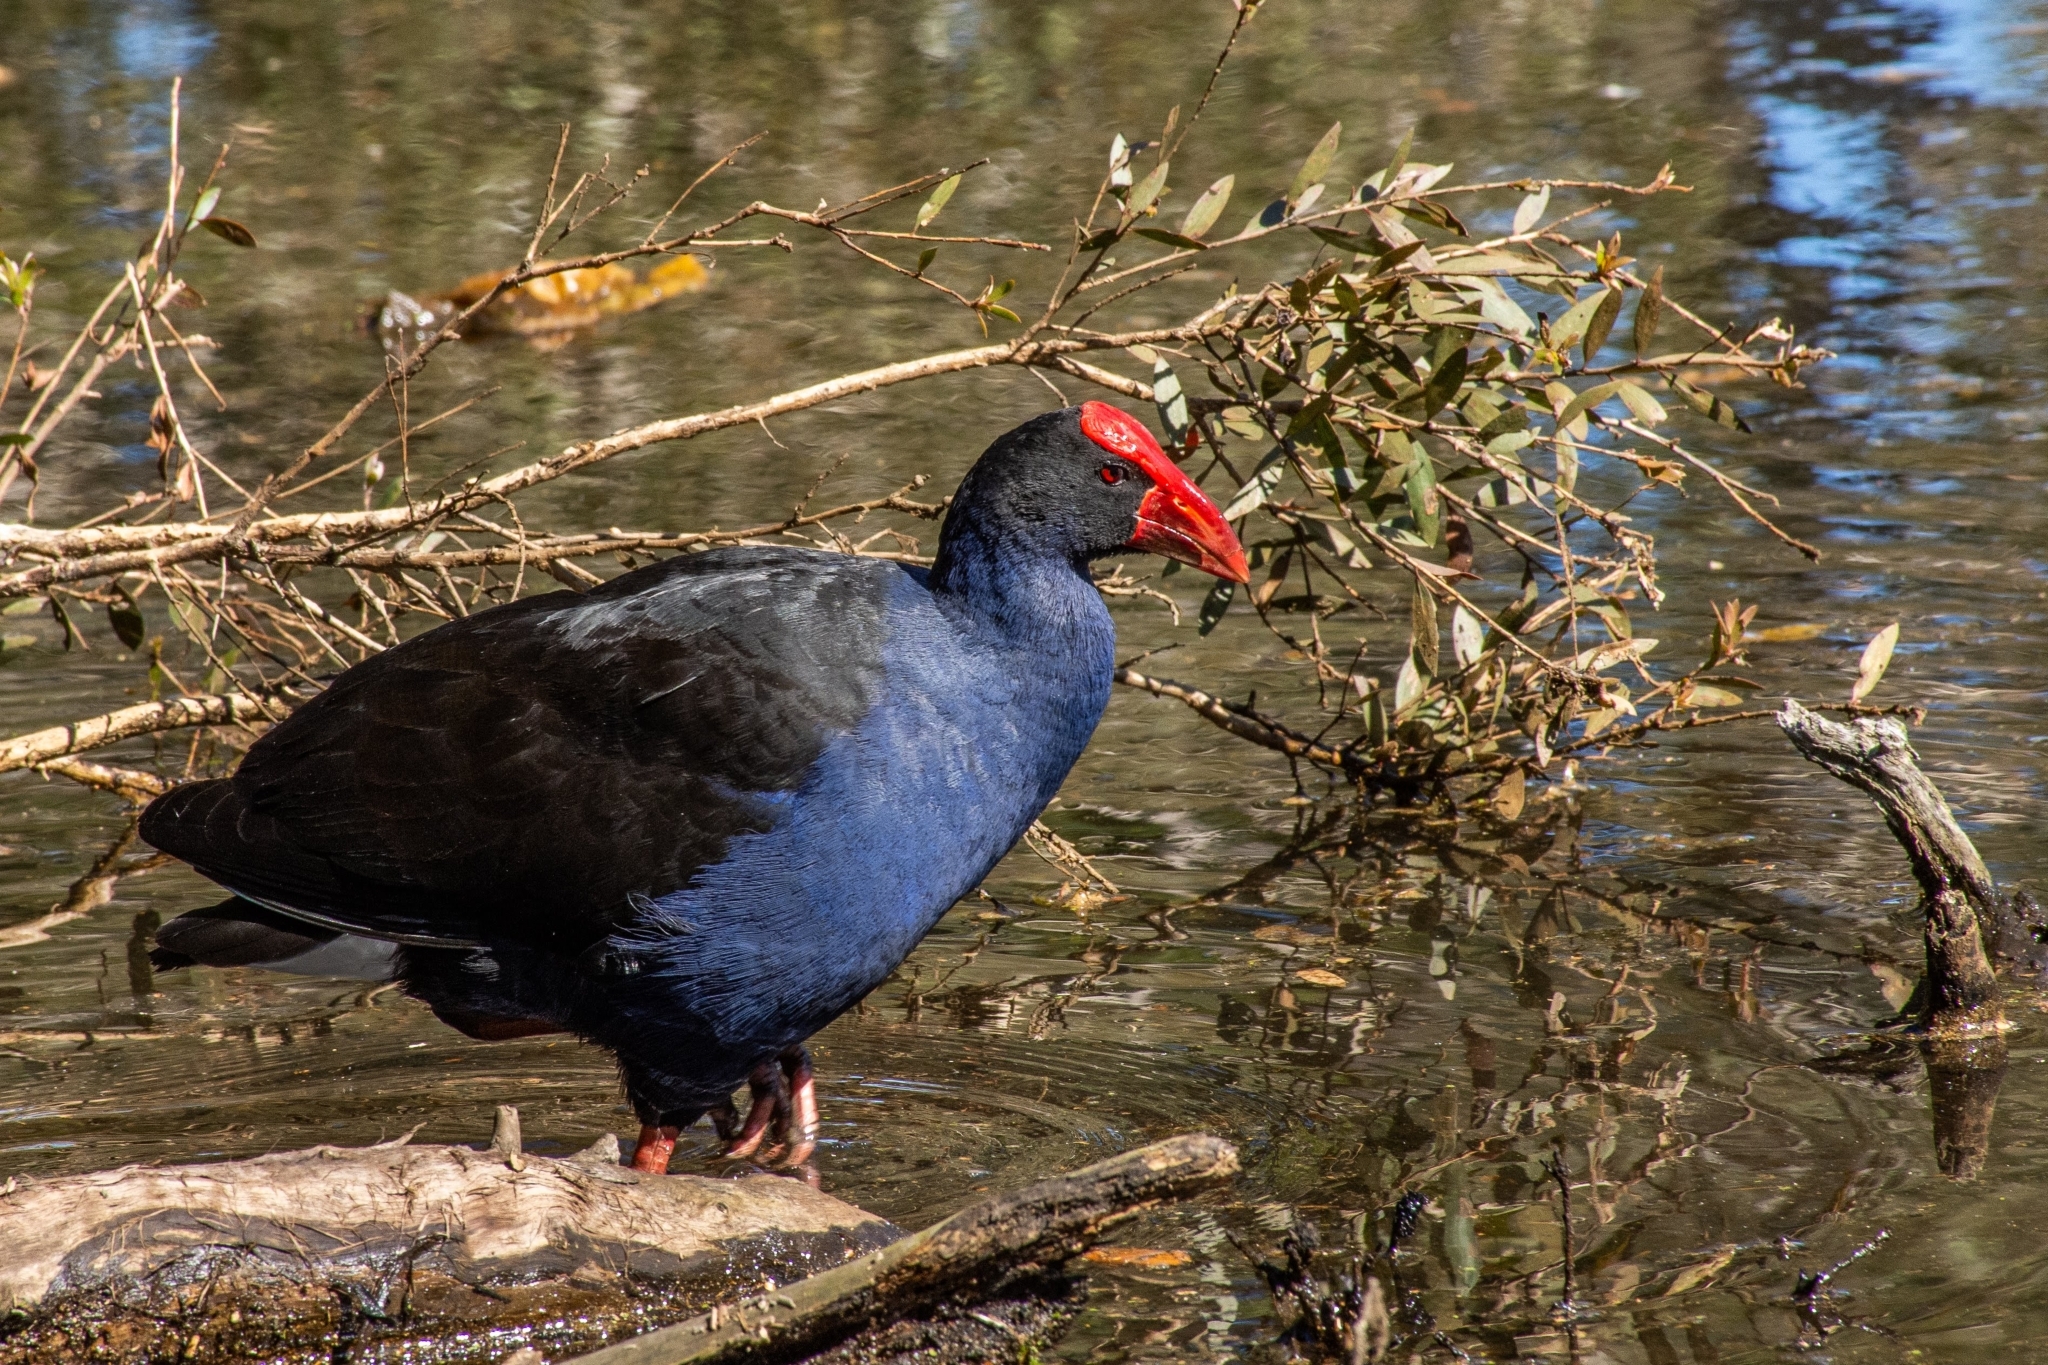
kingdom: Animalia
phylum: Chordata
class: Aves
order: Gruiformes
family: Rallidae
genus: Porphyrio
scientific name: Porphyrio melanotus
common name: Australasian swamphen
